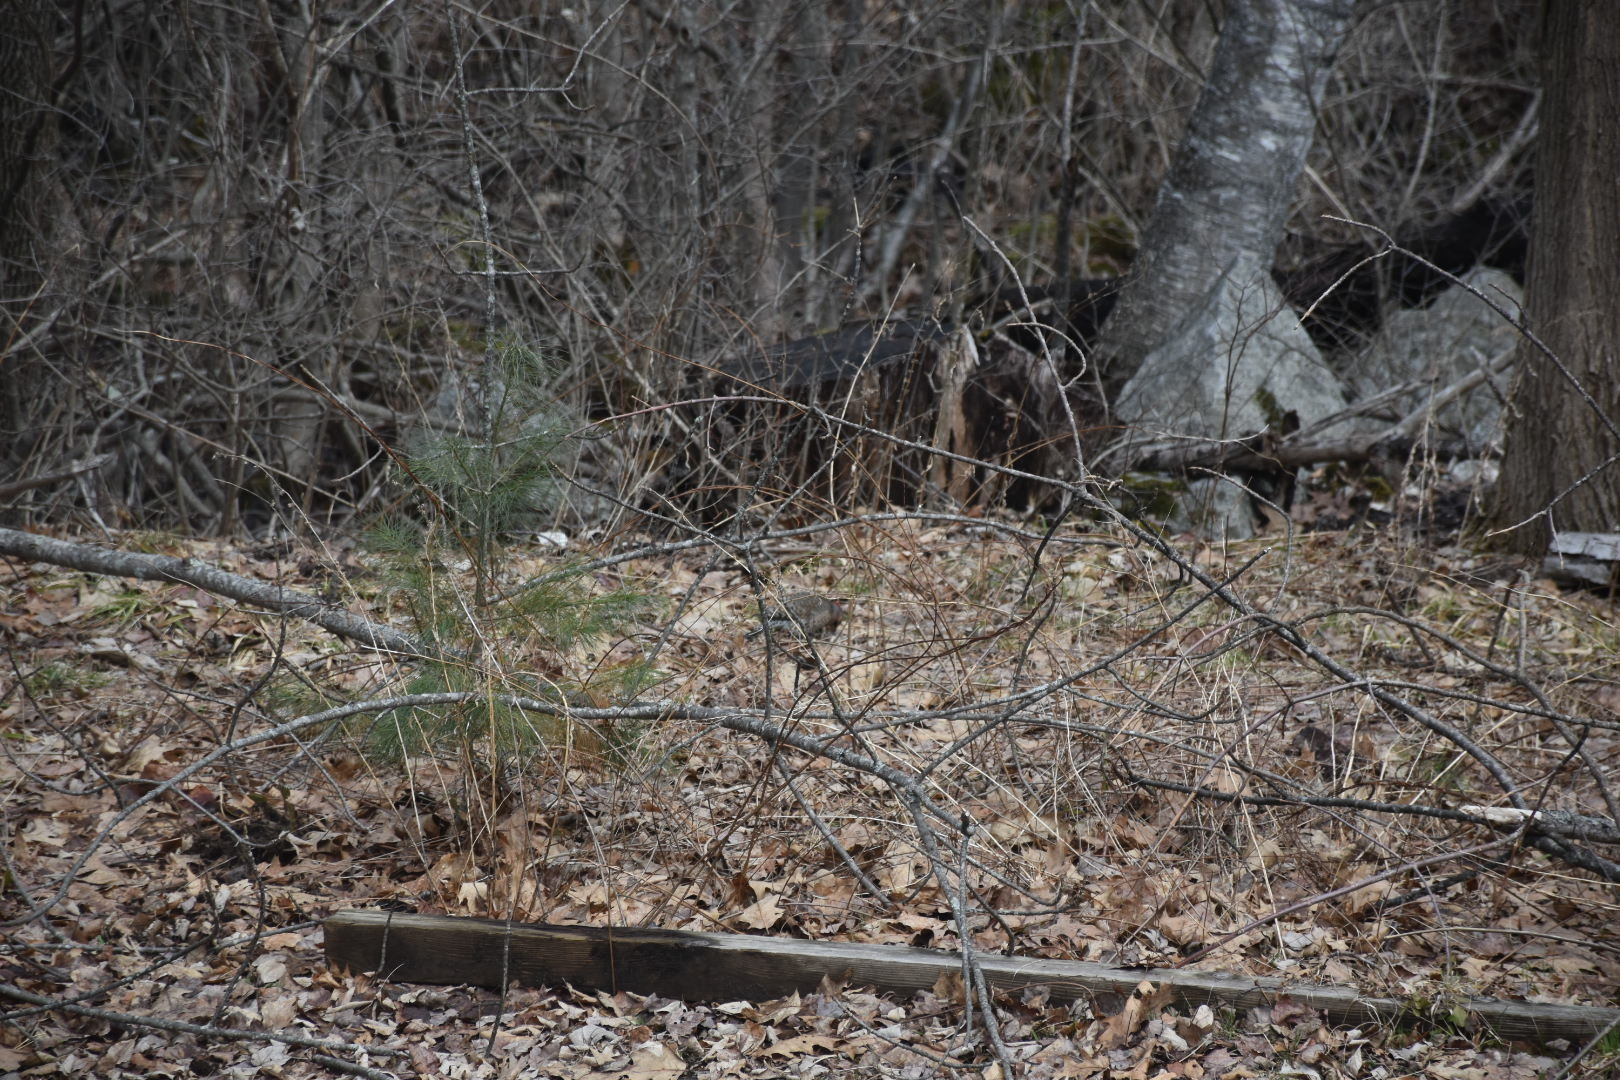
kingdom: Animalia
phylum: Chordata
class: Aves
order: Piciformes
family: Picidae
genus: Colaptes
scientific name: Colaptes auratus
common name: Northern flicker
